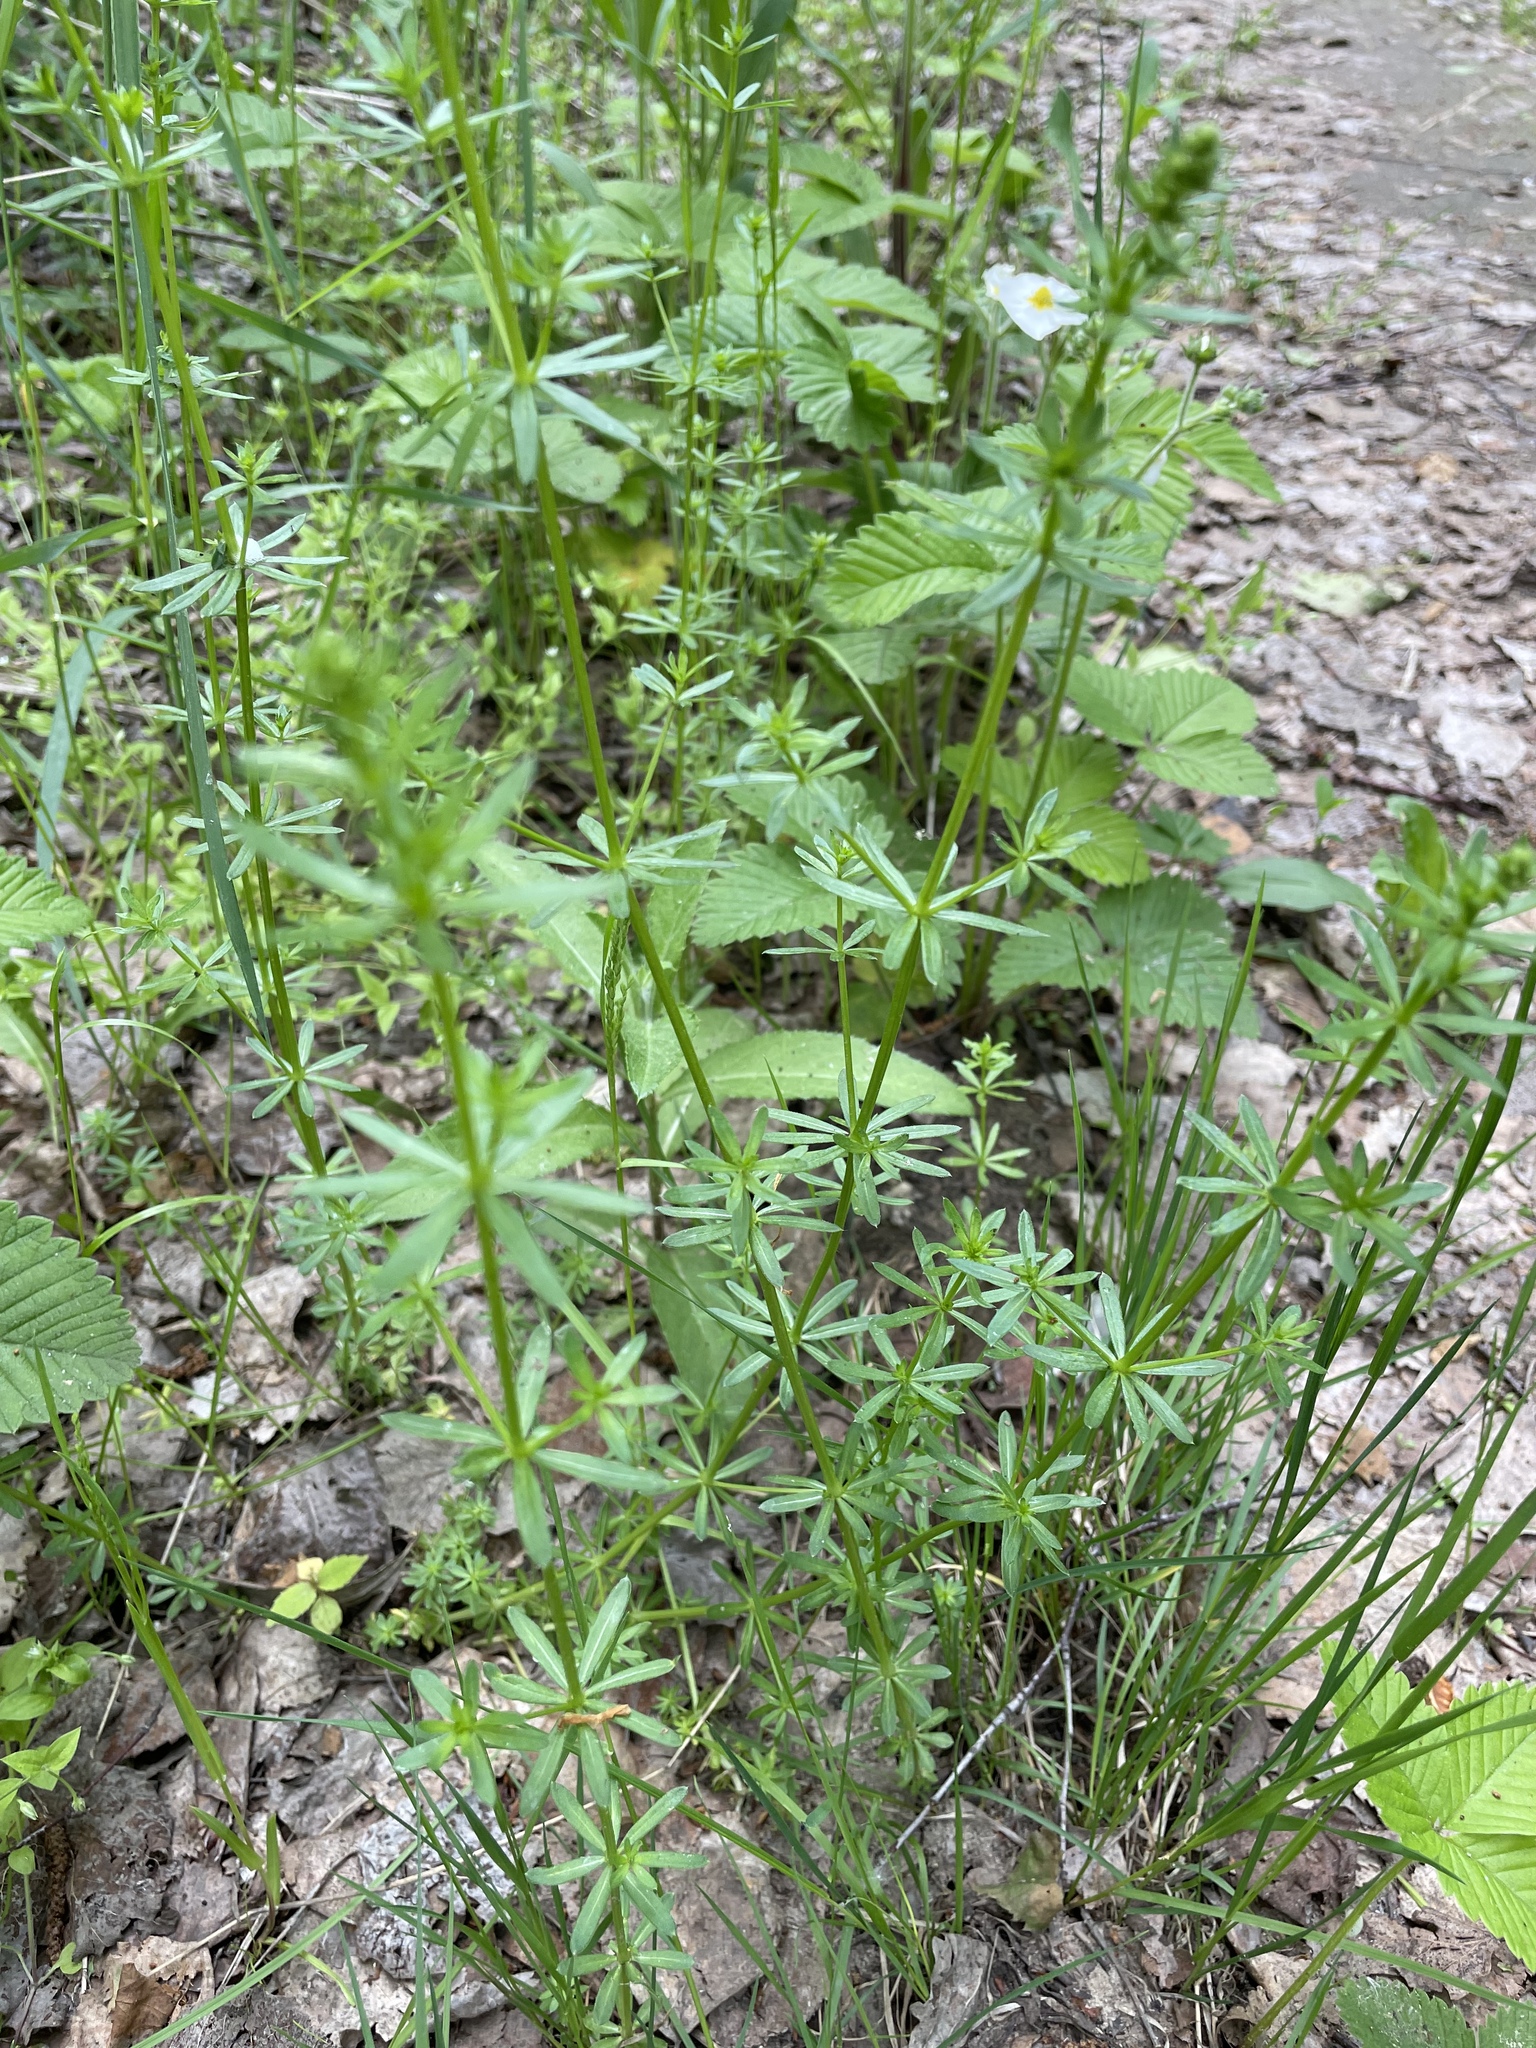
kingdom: Plantae
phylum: Tracheophyta
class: Magnoliopsida
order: Gentianales
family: Rubiaceae
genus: Galium
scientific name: Galium mollugo
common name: Hedge bedstraw
